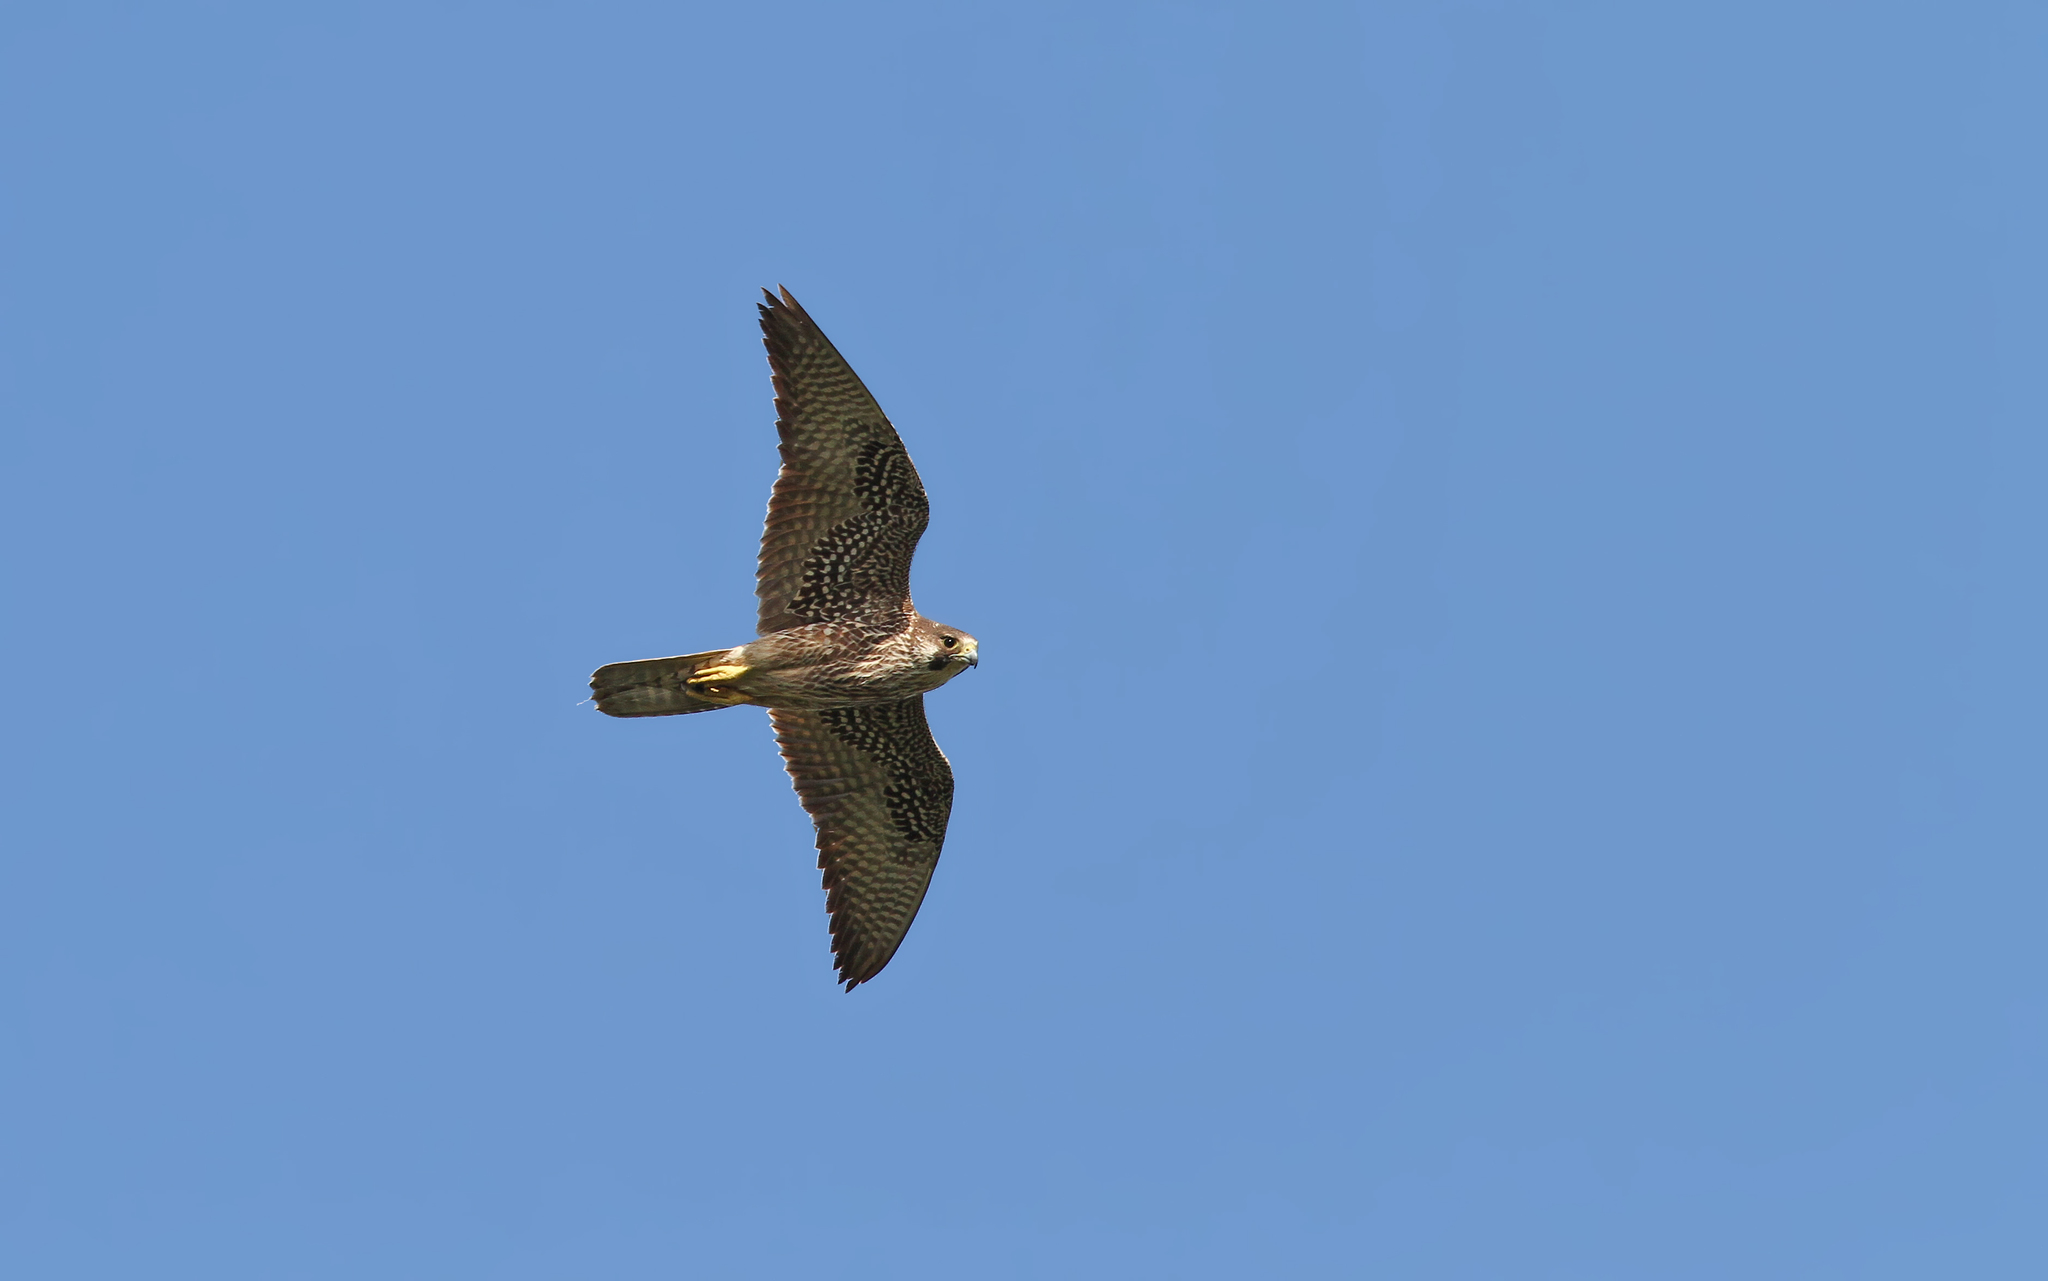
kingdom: Animalia
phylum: Chordata
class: Aves
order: Falconiformes
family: Falconidae
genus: Falco
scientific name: Falco peregrinus
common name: Peregrine falcon
